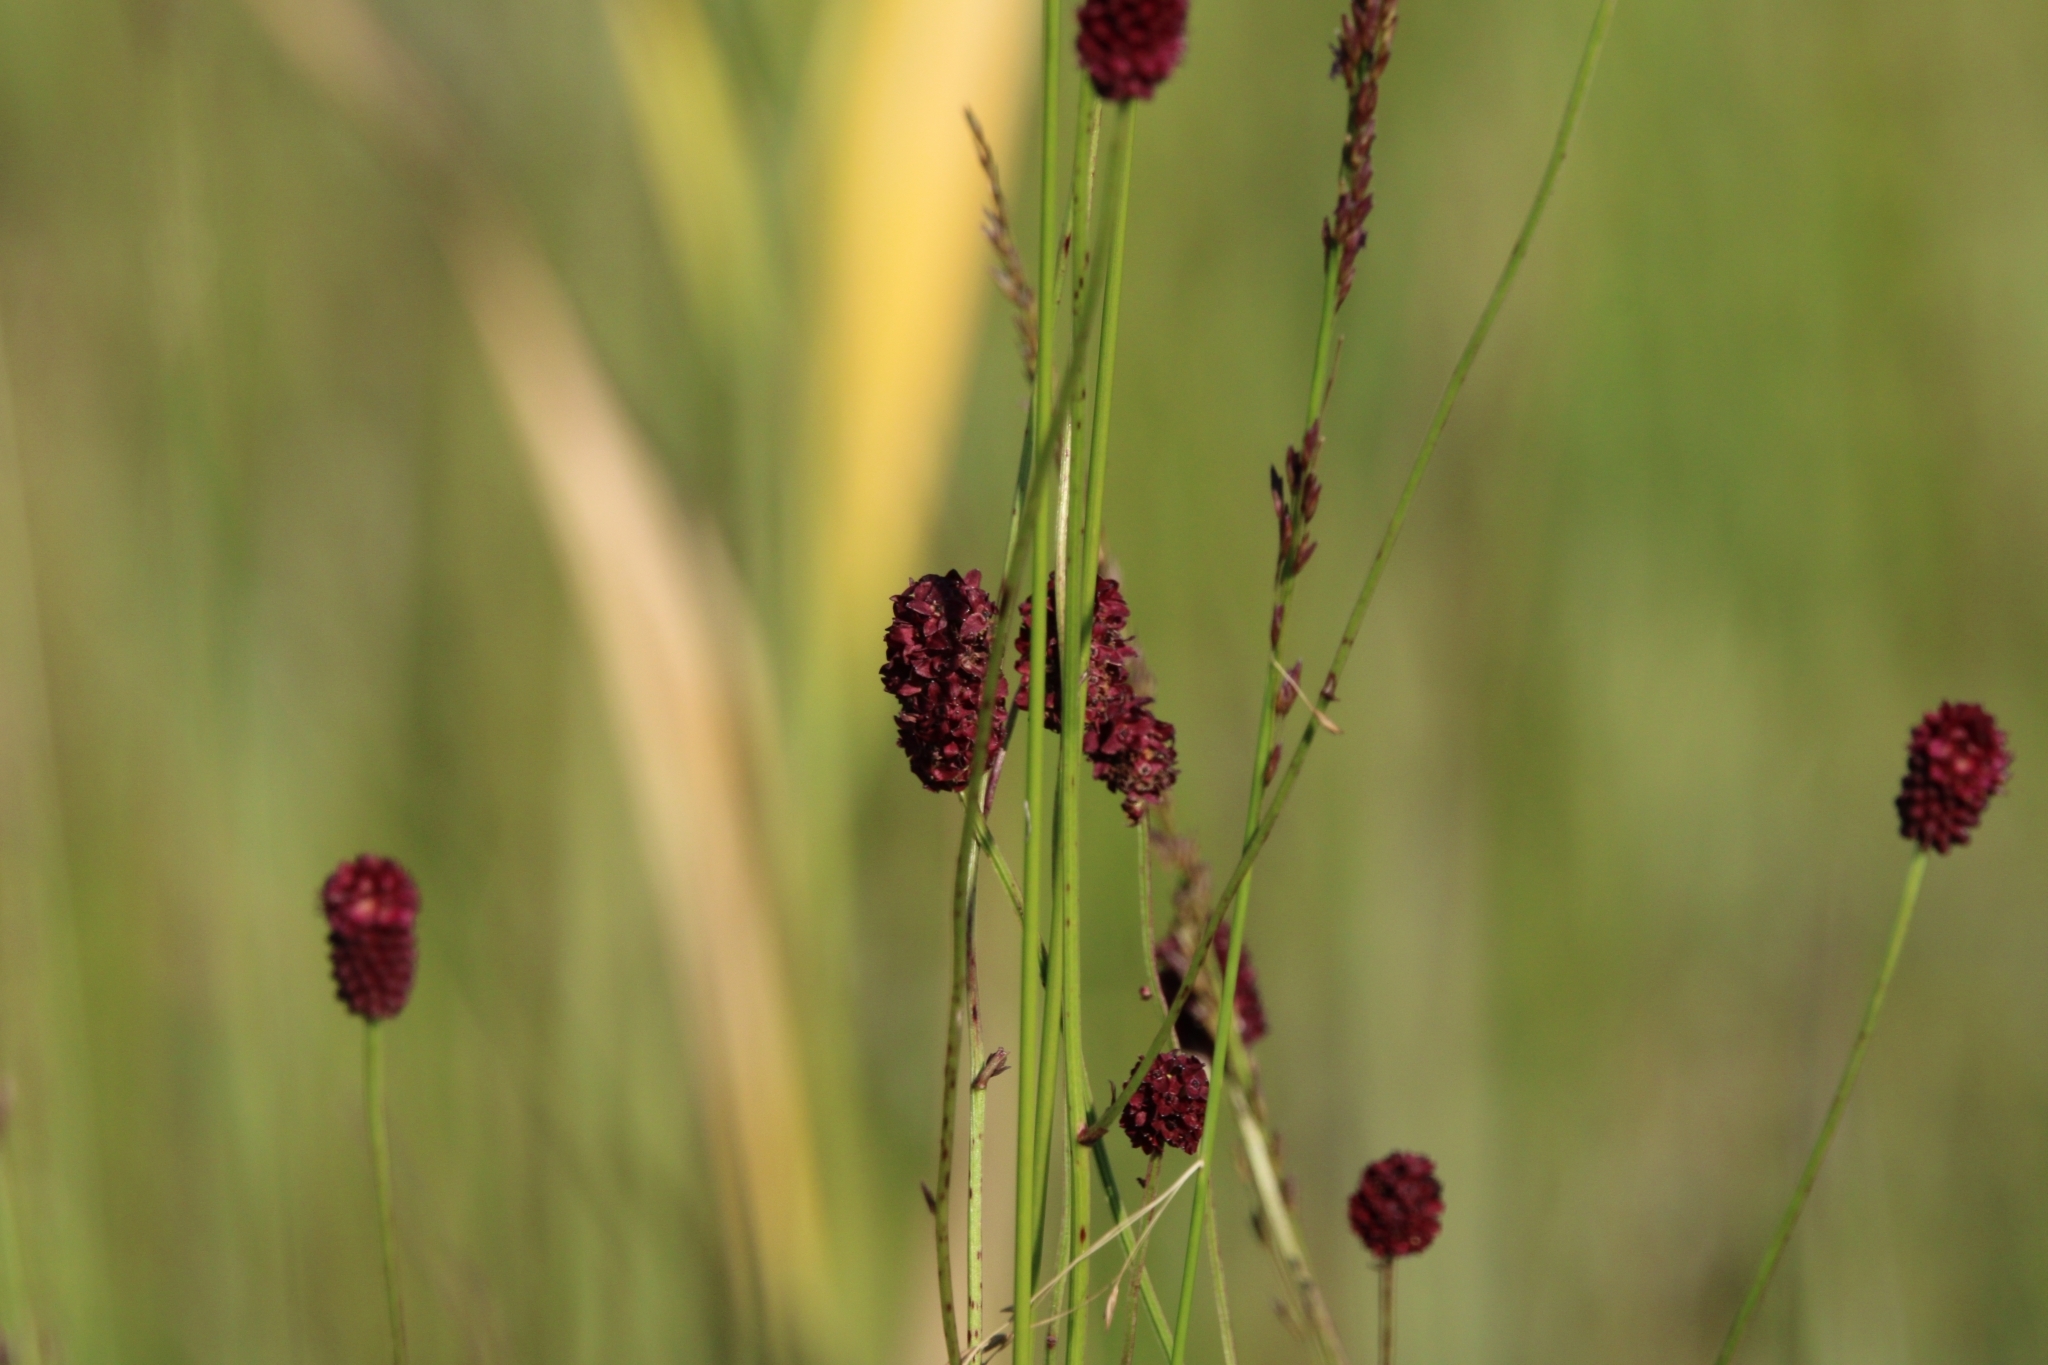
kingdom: Plantae
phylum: Tracheophyta
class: Magnoliopsida
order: Rosales
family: Rosaceae
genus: Sanguisorba
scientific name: Sanguisorba officinalis
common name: Great burnet
